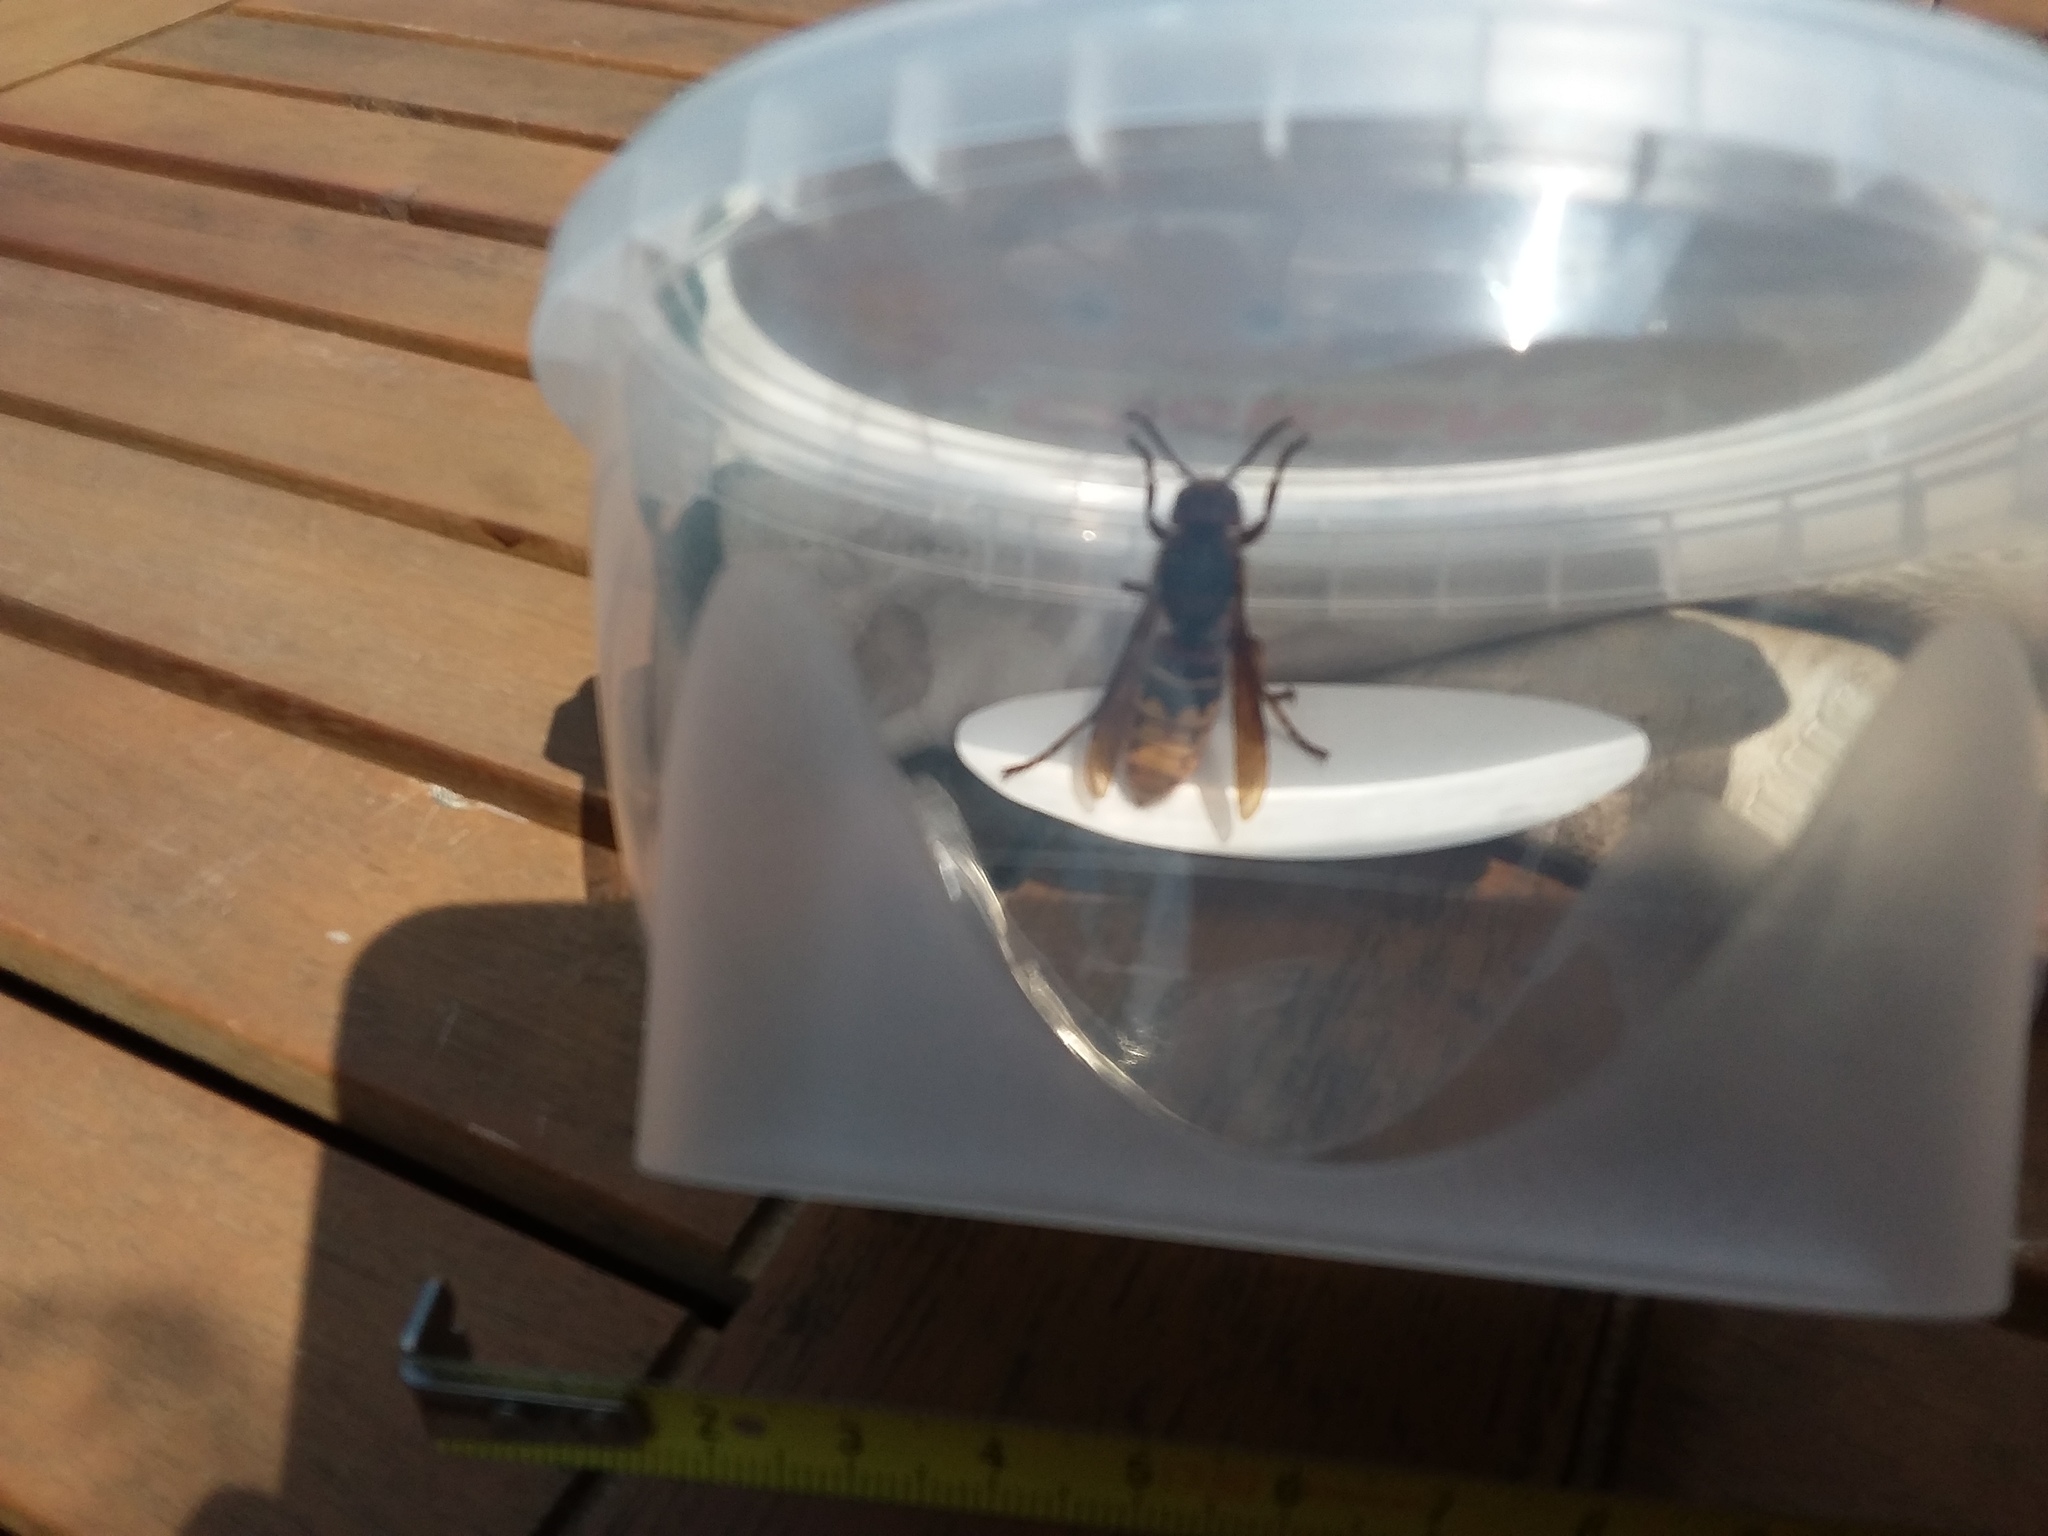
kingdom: Animalia
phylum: Arthropoda
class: Insecta
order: Hymenoptera
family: Vespidae
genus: Vespa
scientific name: Vespa crabro
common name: Hornet
